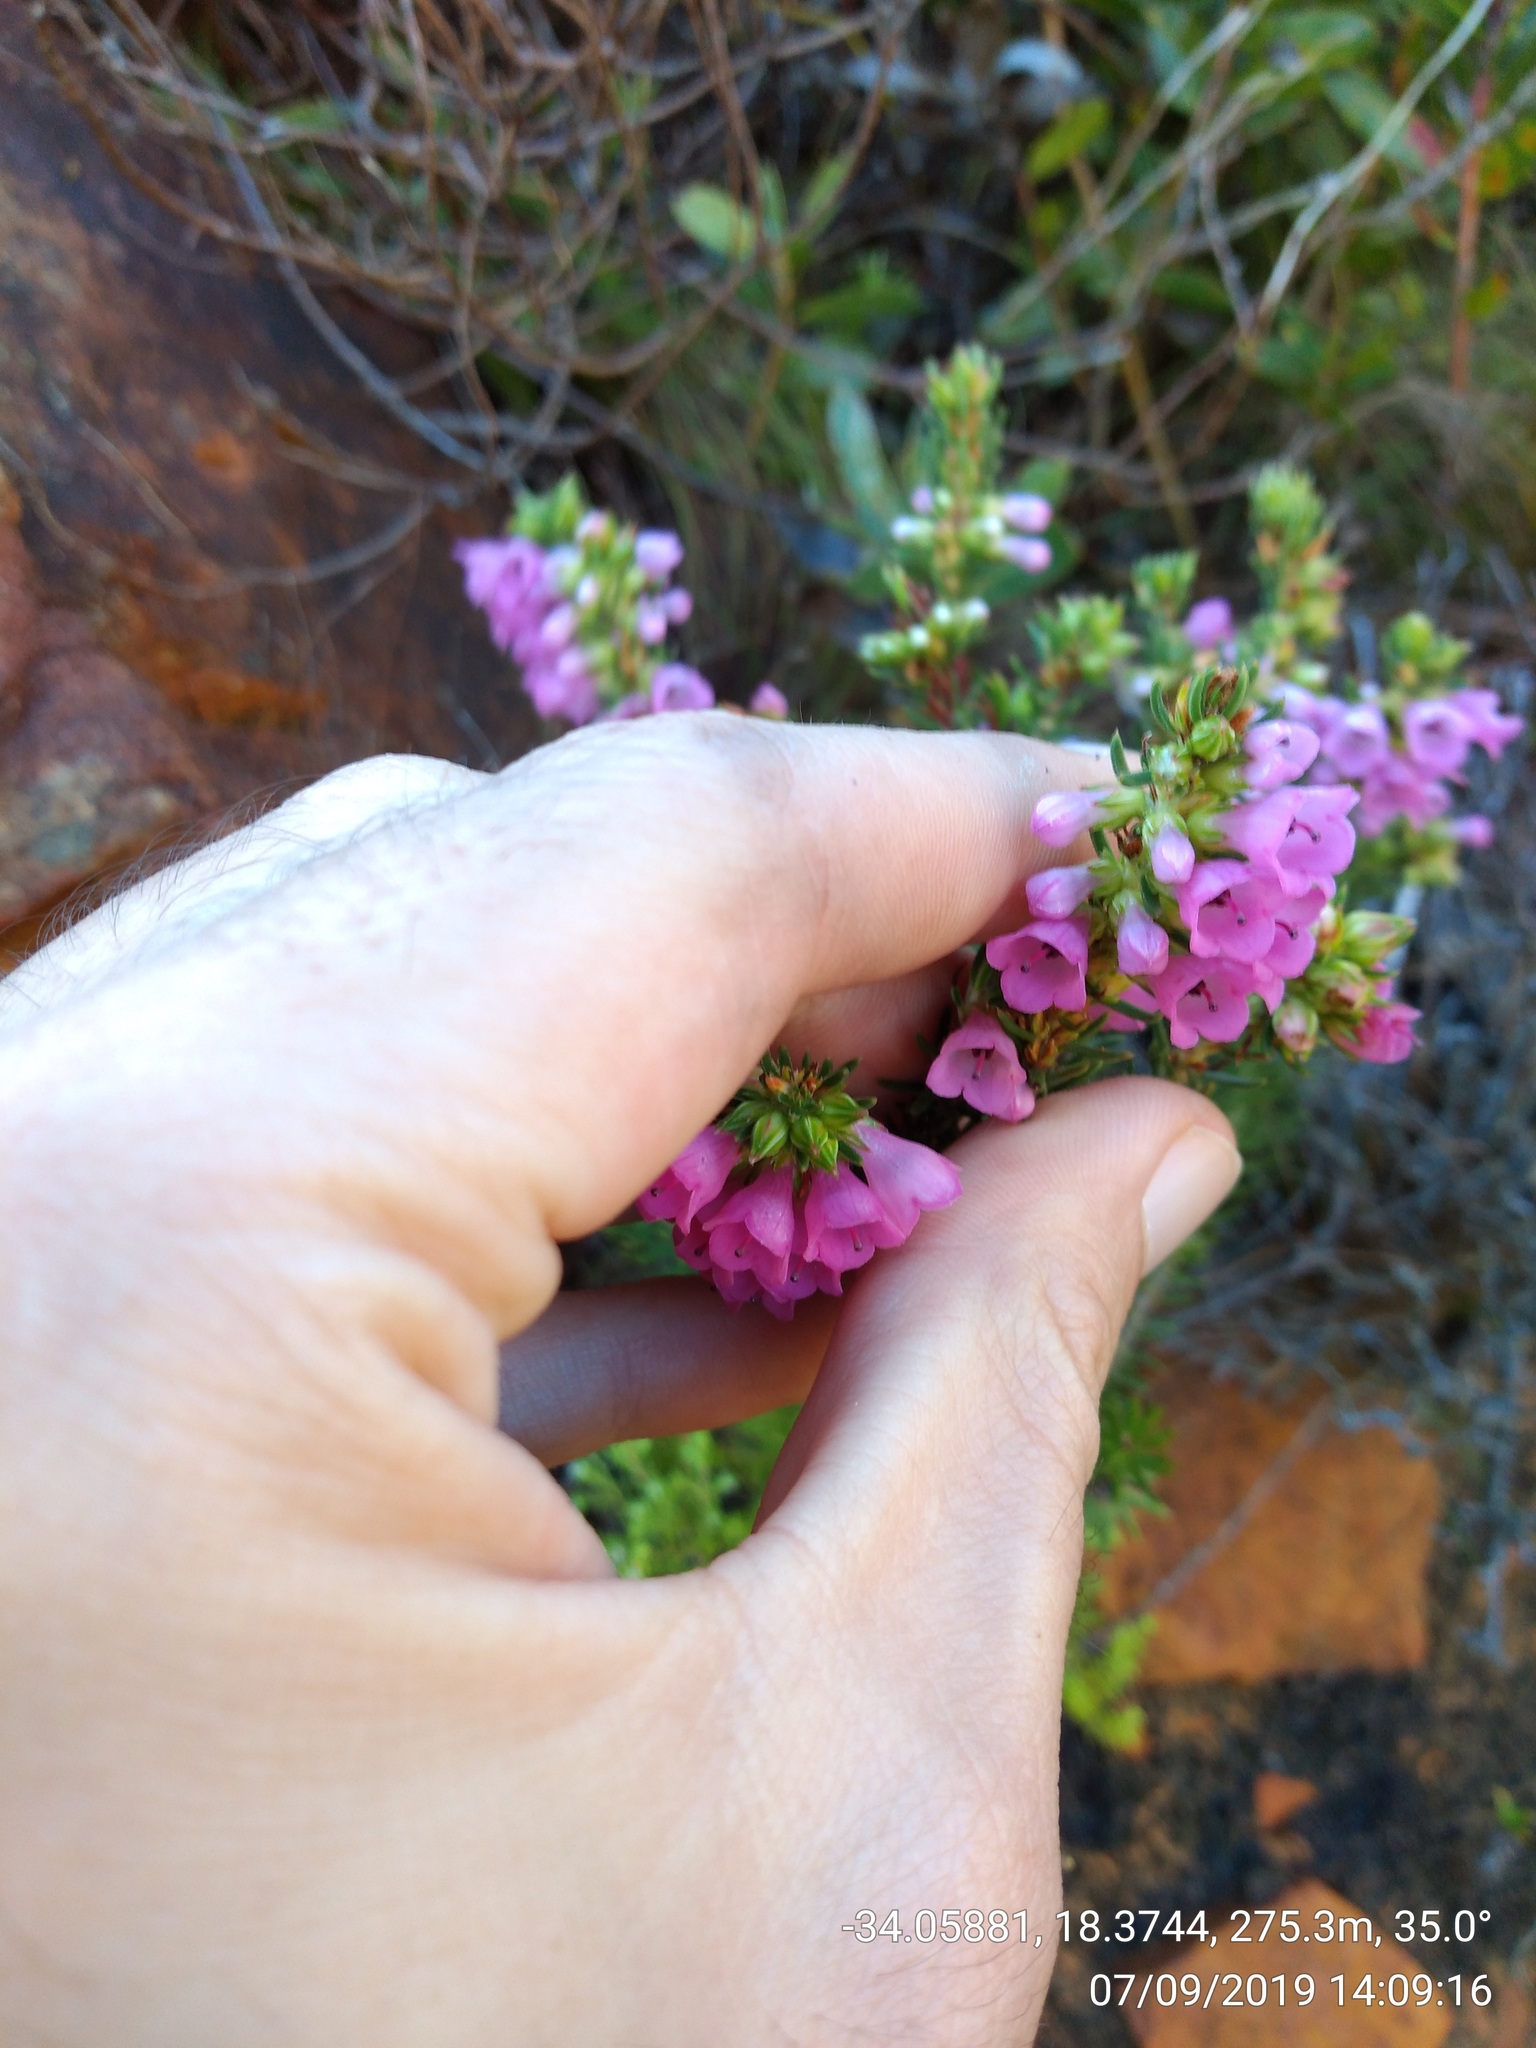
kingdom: Plantae
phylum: Tracheophyta
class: Magnoliopsida
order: Ericales
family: Ericaceae
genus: Erica
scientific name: Erica abietina
